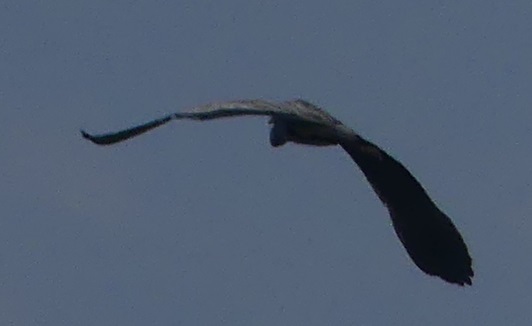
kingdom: Animalia
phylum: Chordata
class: Aves
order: Pelecaniformes
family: Ardeidae
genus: Ardea
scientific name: Ardea cinerea
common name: Grey heron
